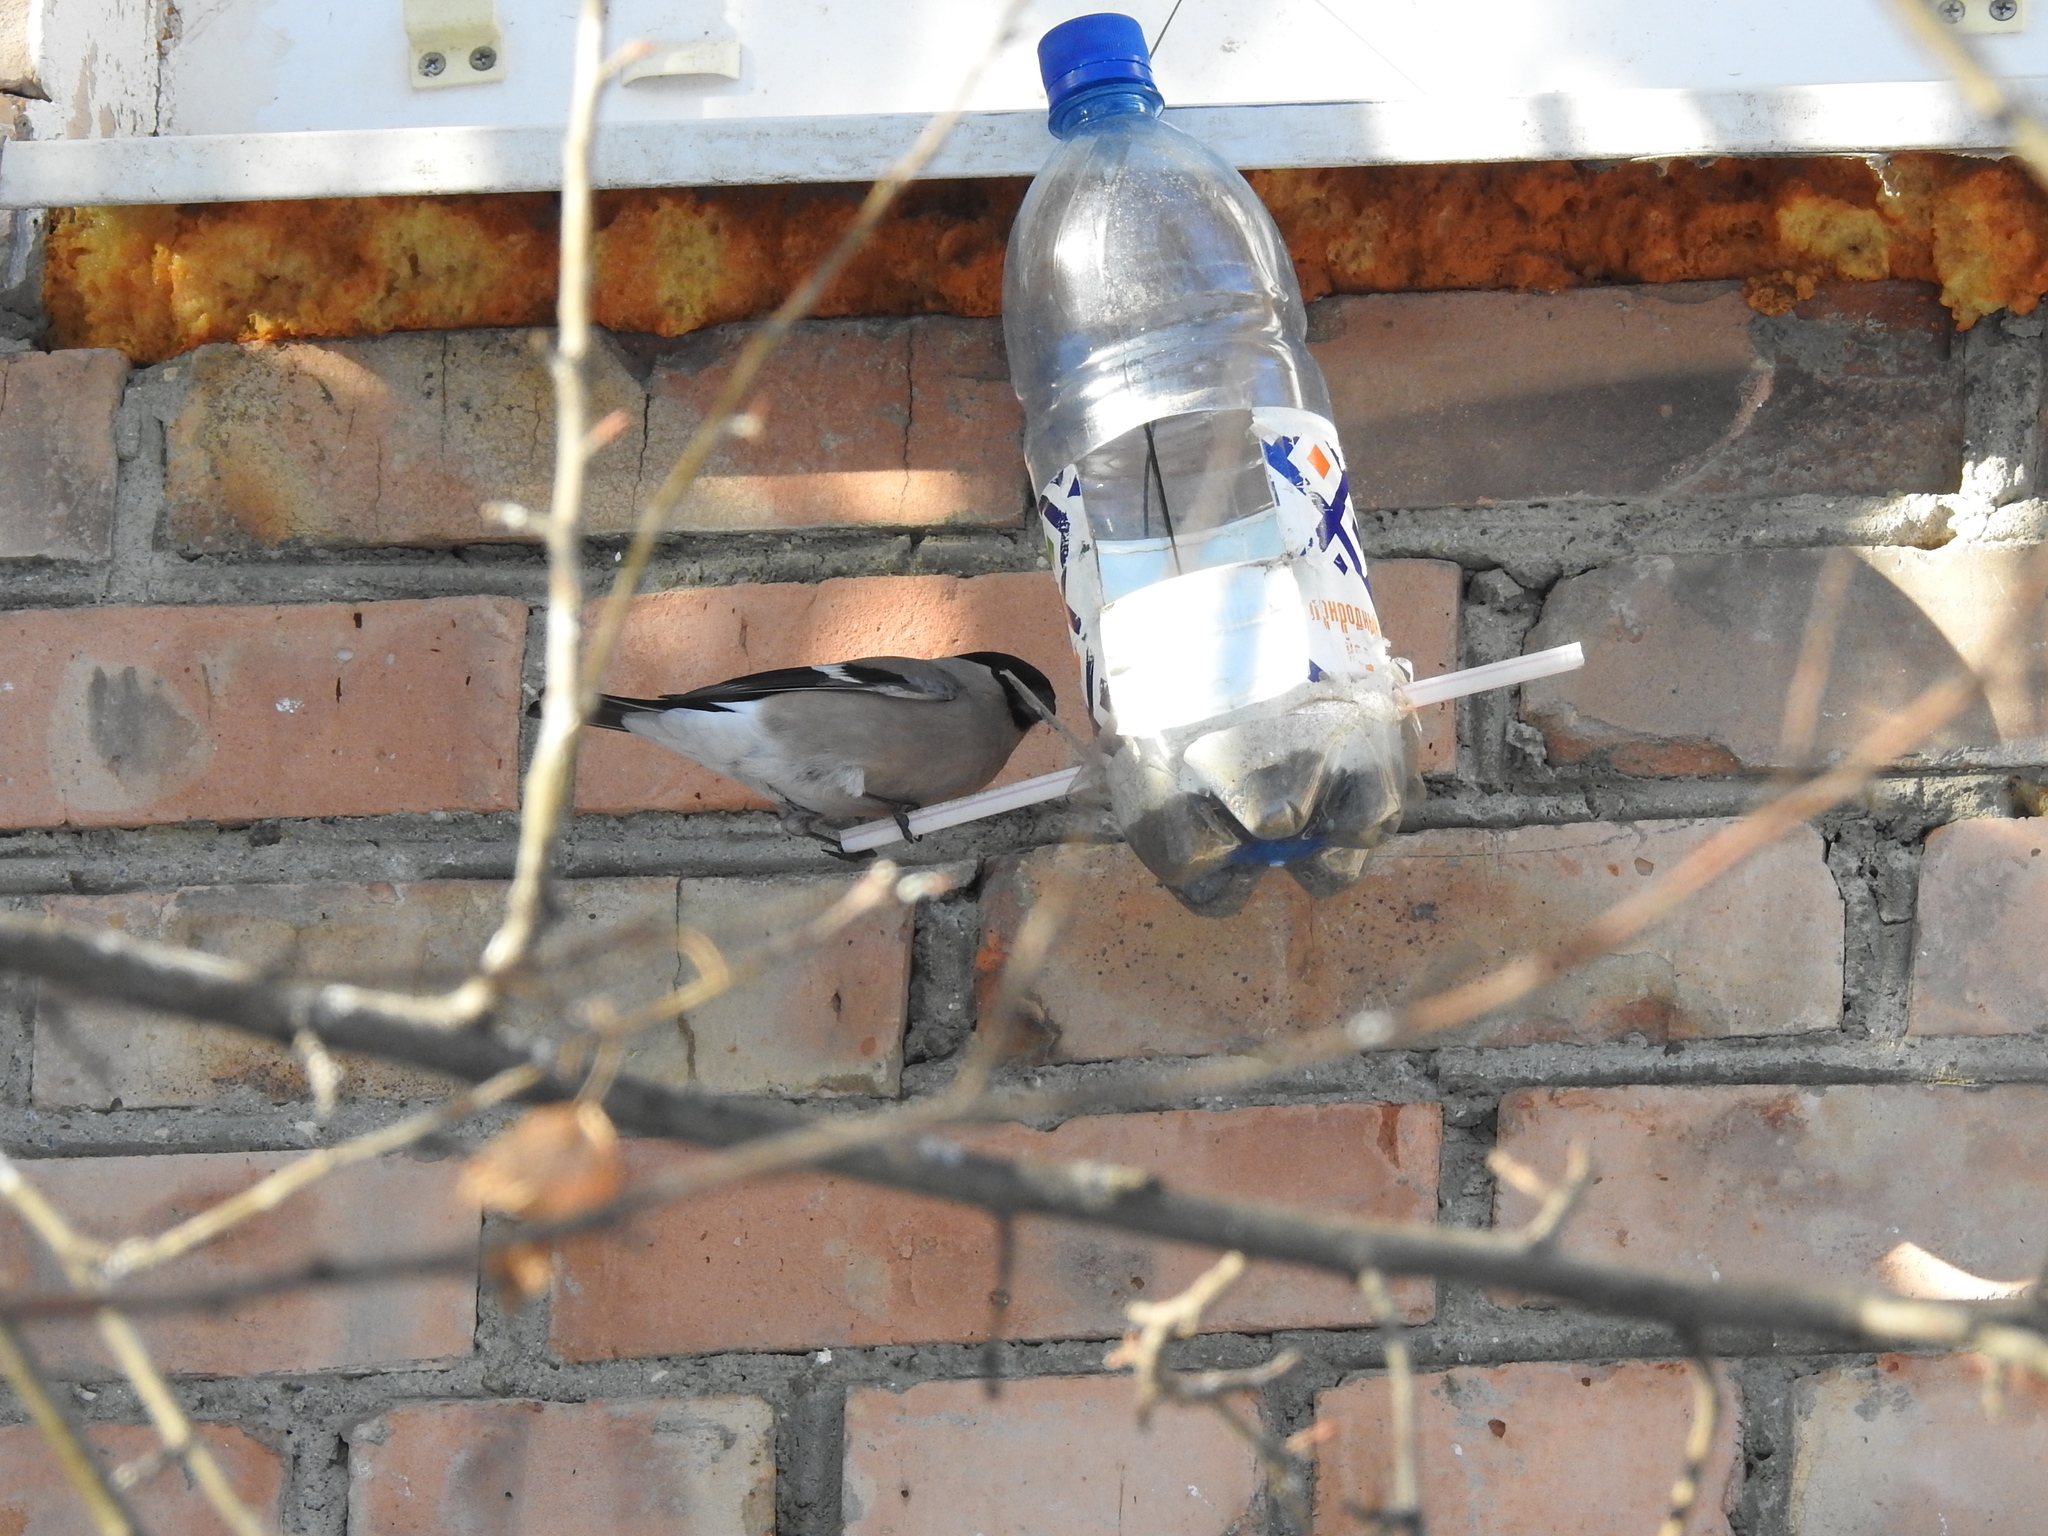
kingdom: Animalia
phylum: Chordata
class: Aves
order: Passeriformes
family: Fringillidae
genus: Pyrrhula
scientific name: Pyrrhula pyrrhula
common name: Eurasian bullfinch
